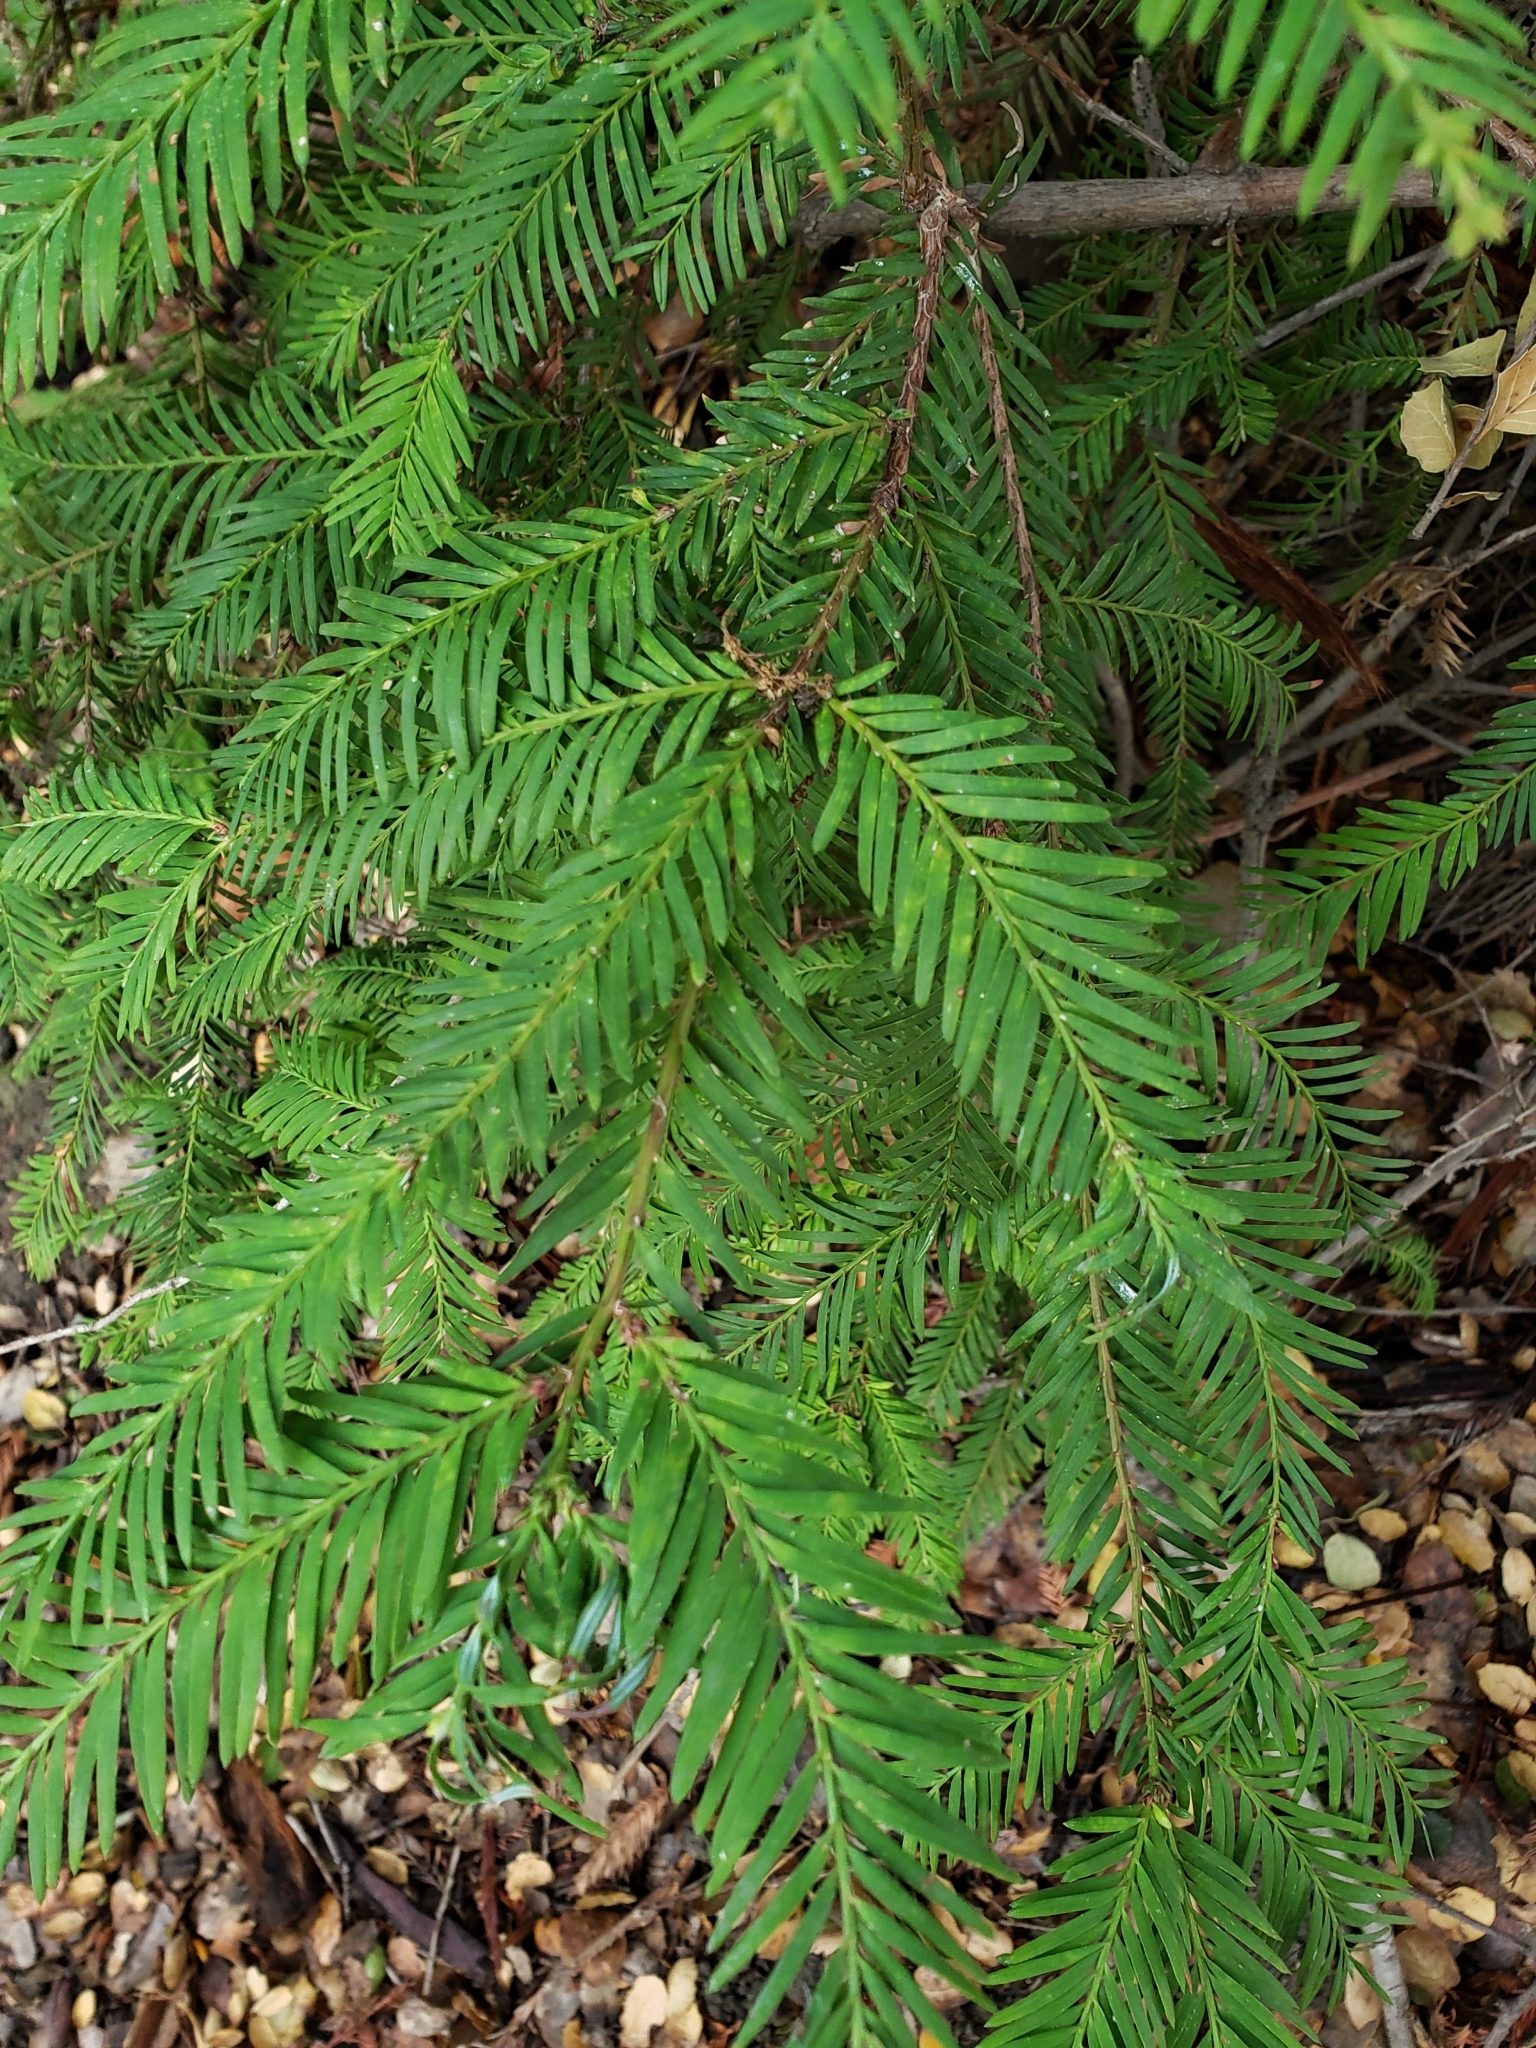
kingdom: Plantae
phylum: Tracheophyta
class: Pinopsida
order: Pinales
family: Cupressaceae
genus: Sequoia
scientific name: Sequoia sempervirens
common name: Coast redwood
